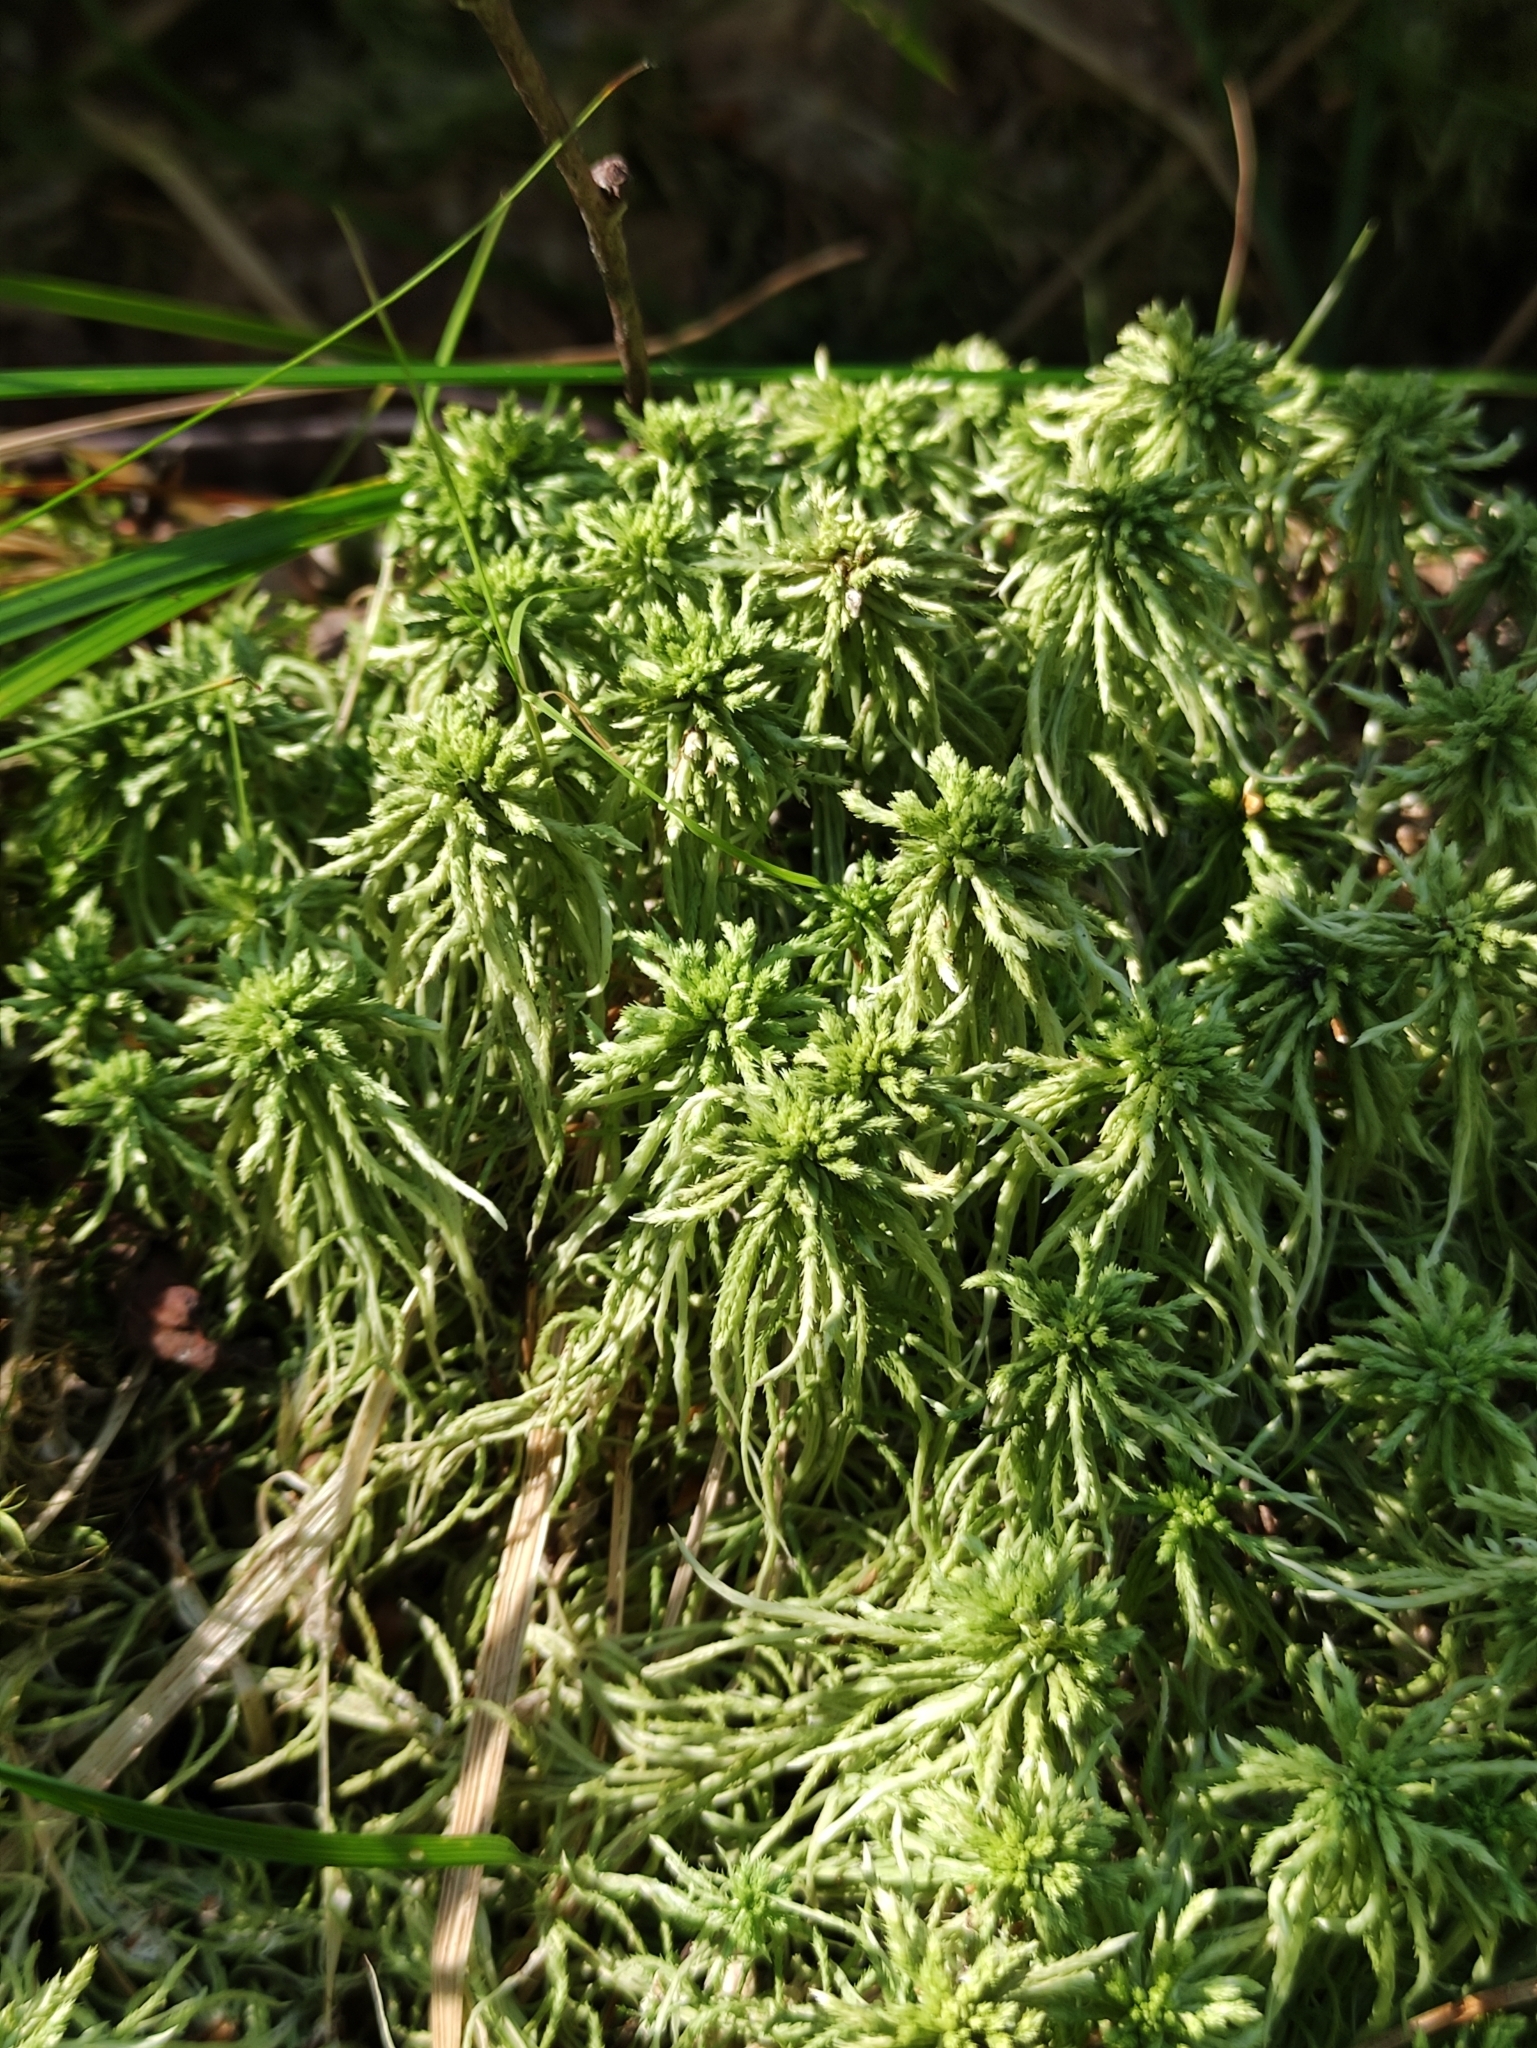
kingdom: Plantae
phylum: Bryophyta
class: Sphagnopsida
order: Sphagnales
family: Sphagnaceae
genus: Sphagnum
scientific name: Sphagnum girgensohnii
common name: Girgensohn's peat moss
